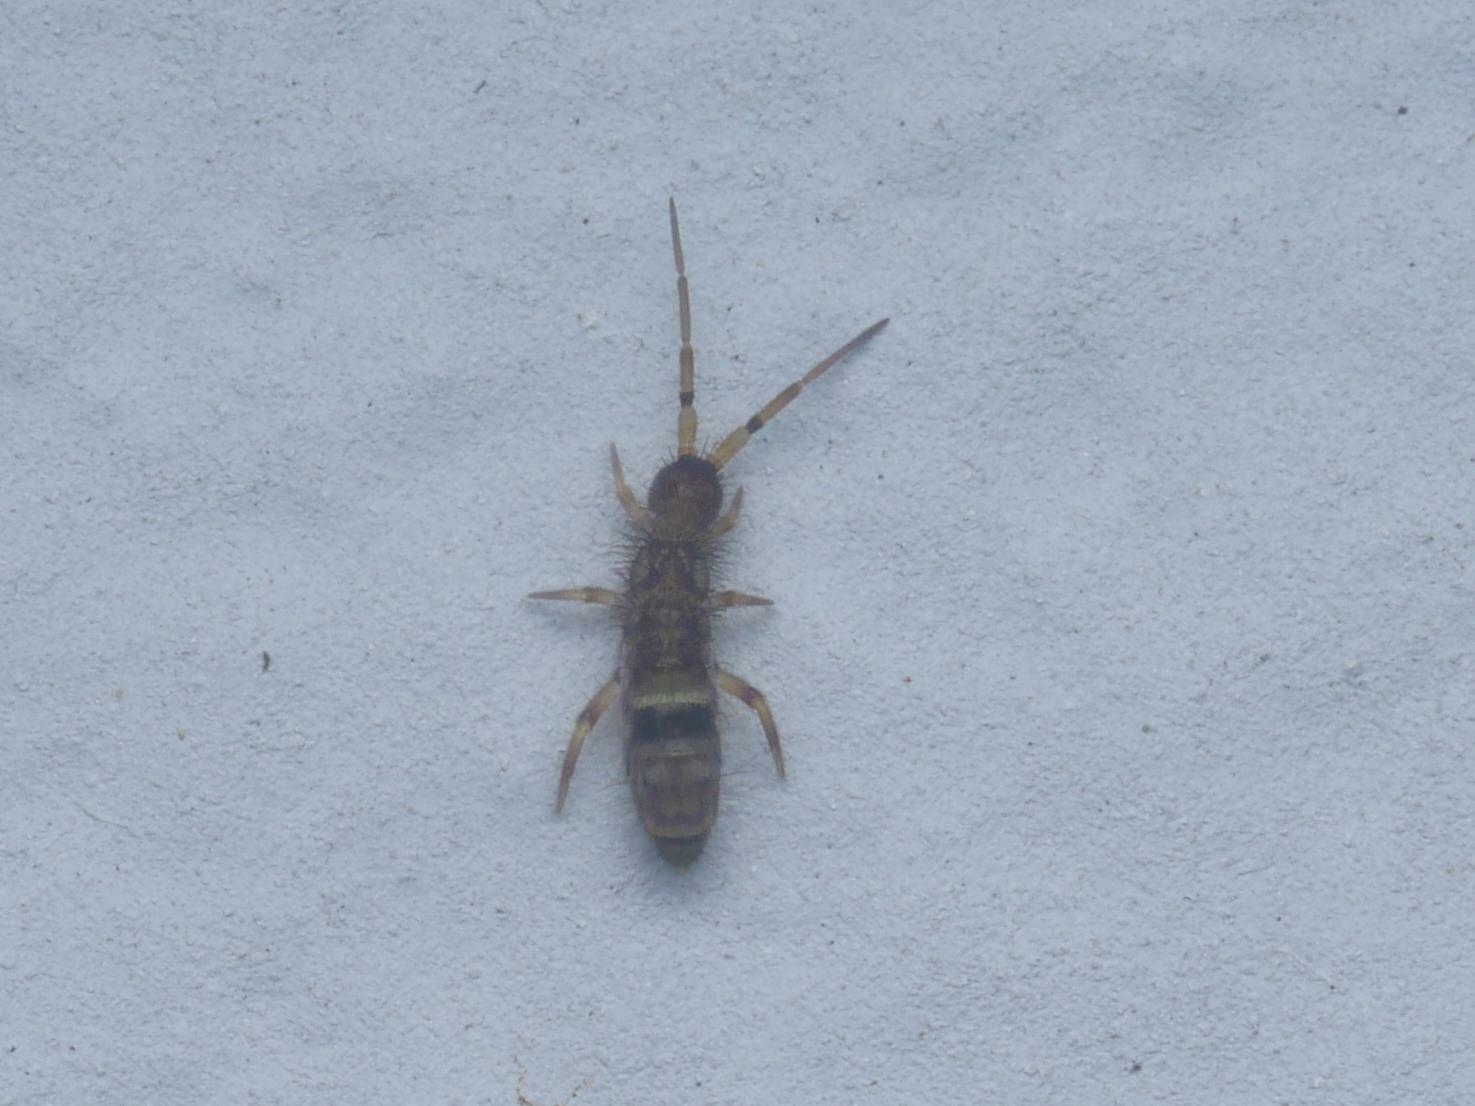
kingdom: Animalia
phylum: Arthropoda
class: Collembola
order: Entomobryomorpha
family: Orchesellidae
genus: Orchesella
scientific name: Orchesella cincta
